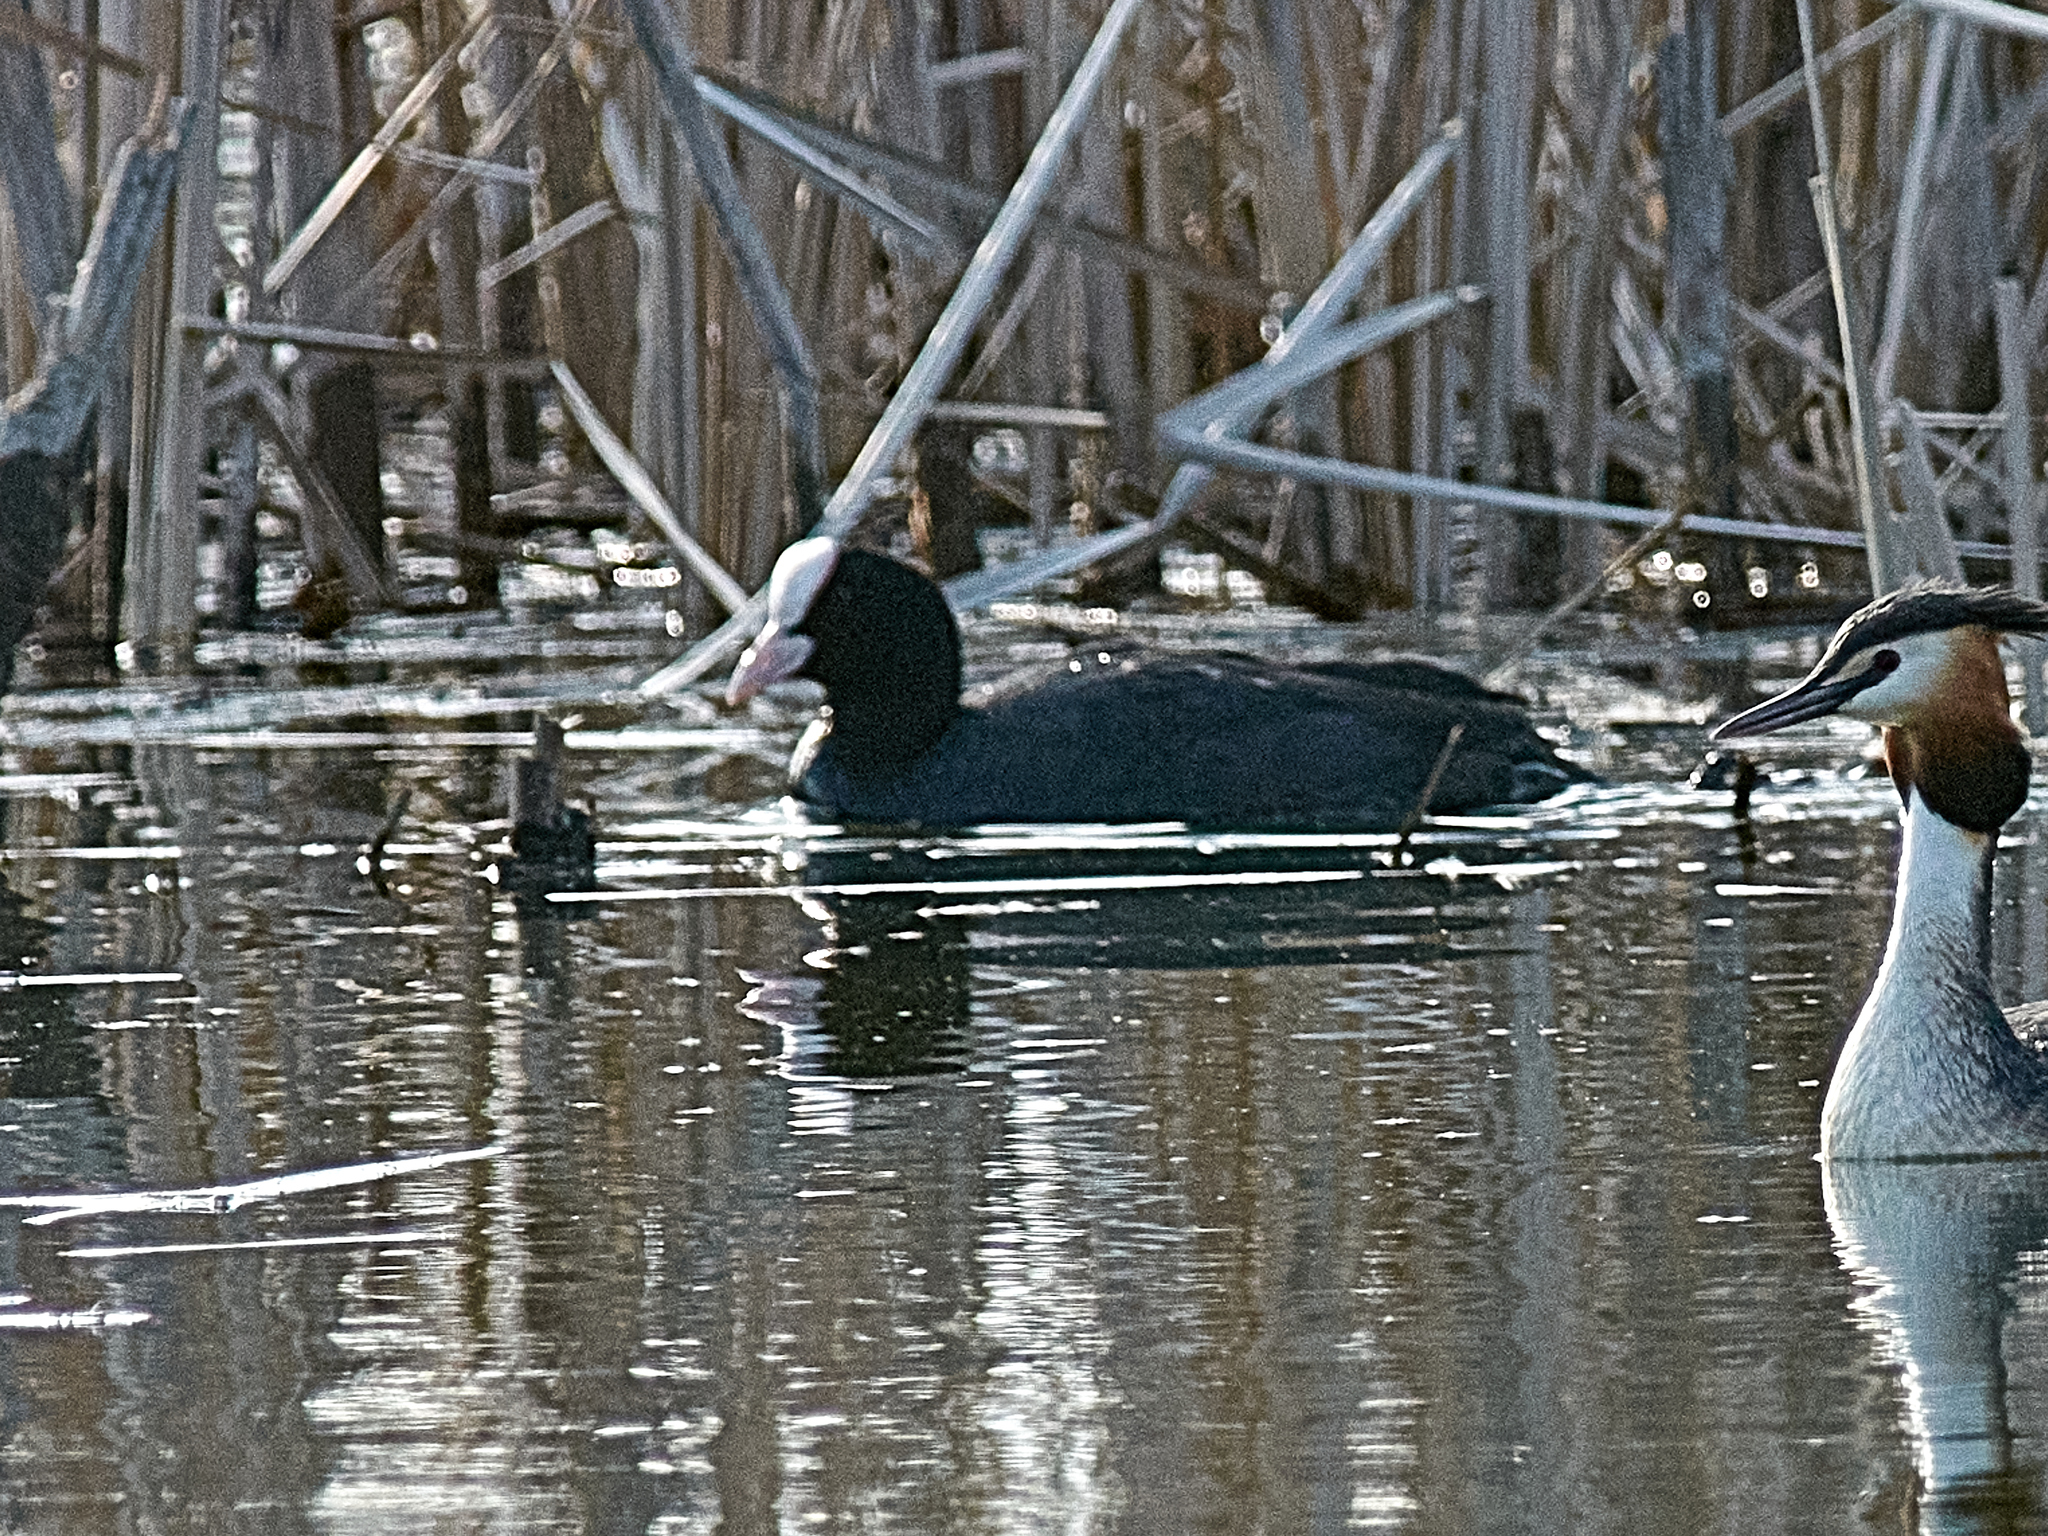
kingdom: Animalia
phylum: Chordata
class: Aves
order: Gruiformes
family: Rallidae
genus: Fulica
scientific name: Fulica atra
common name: Eurasian coot
